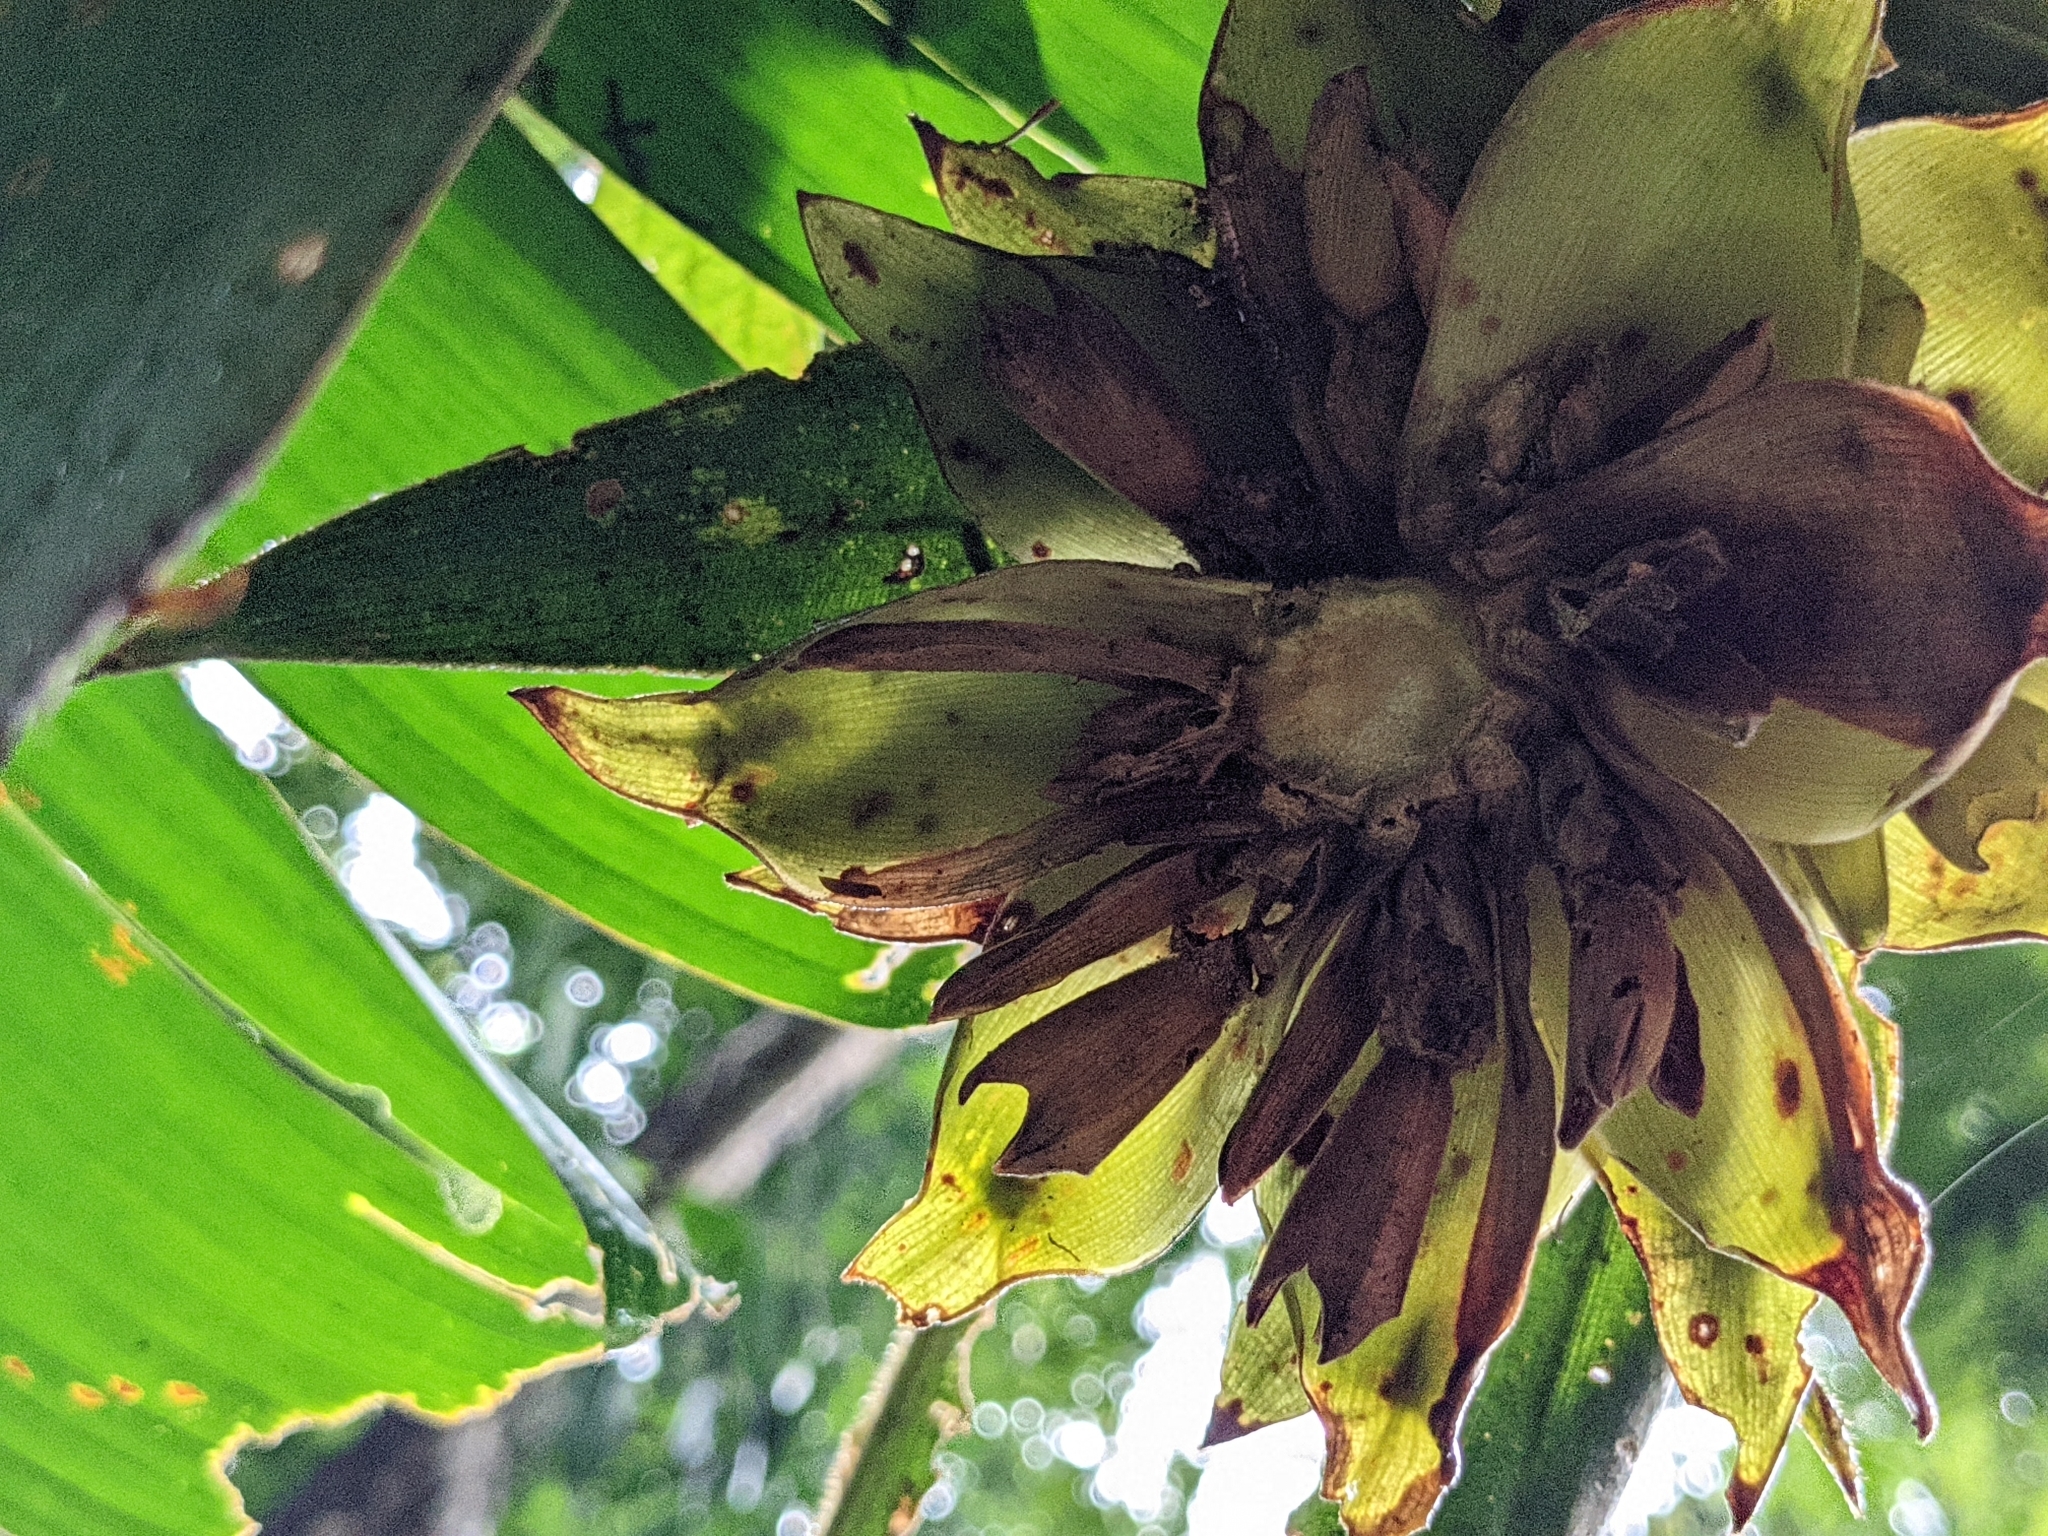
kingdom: Plantae
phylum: Tracheophyta
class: Liliopsida
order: Zingiberales
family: Costaceae
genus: Costus
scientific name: Costus bracteatus
